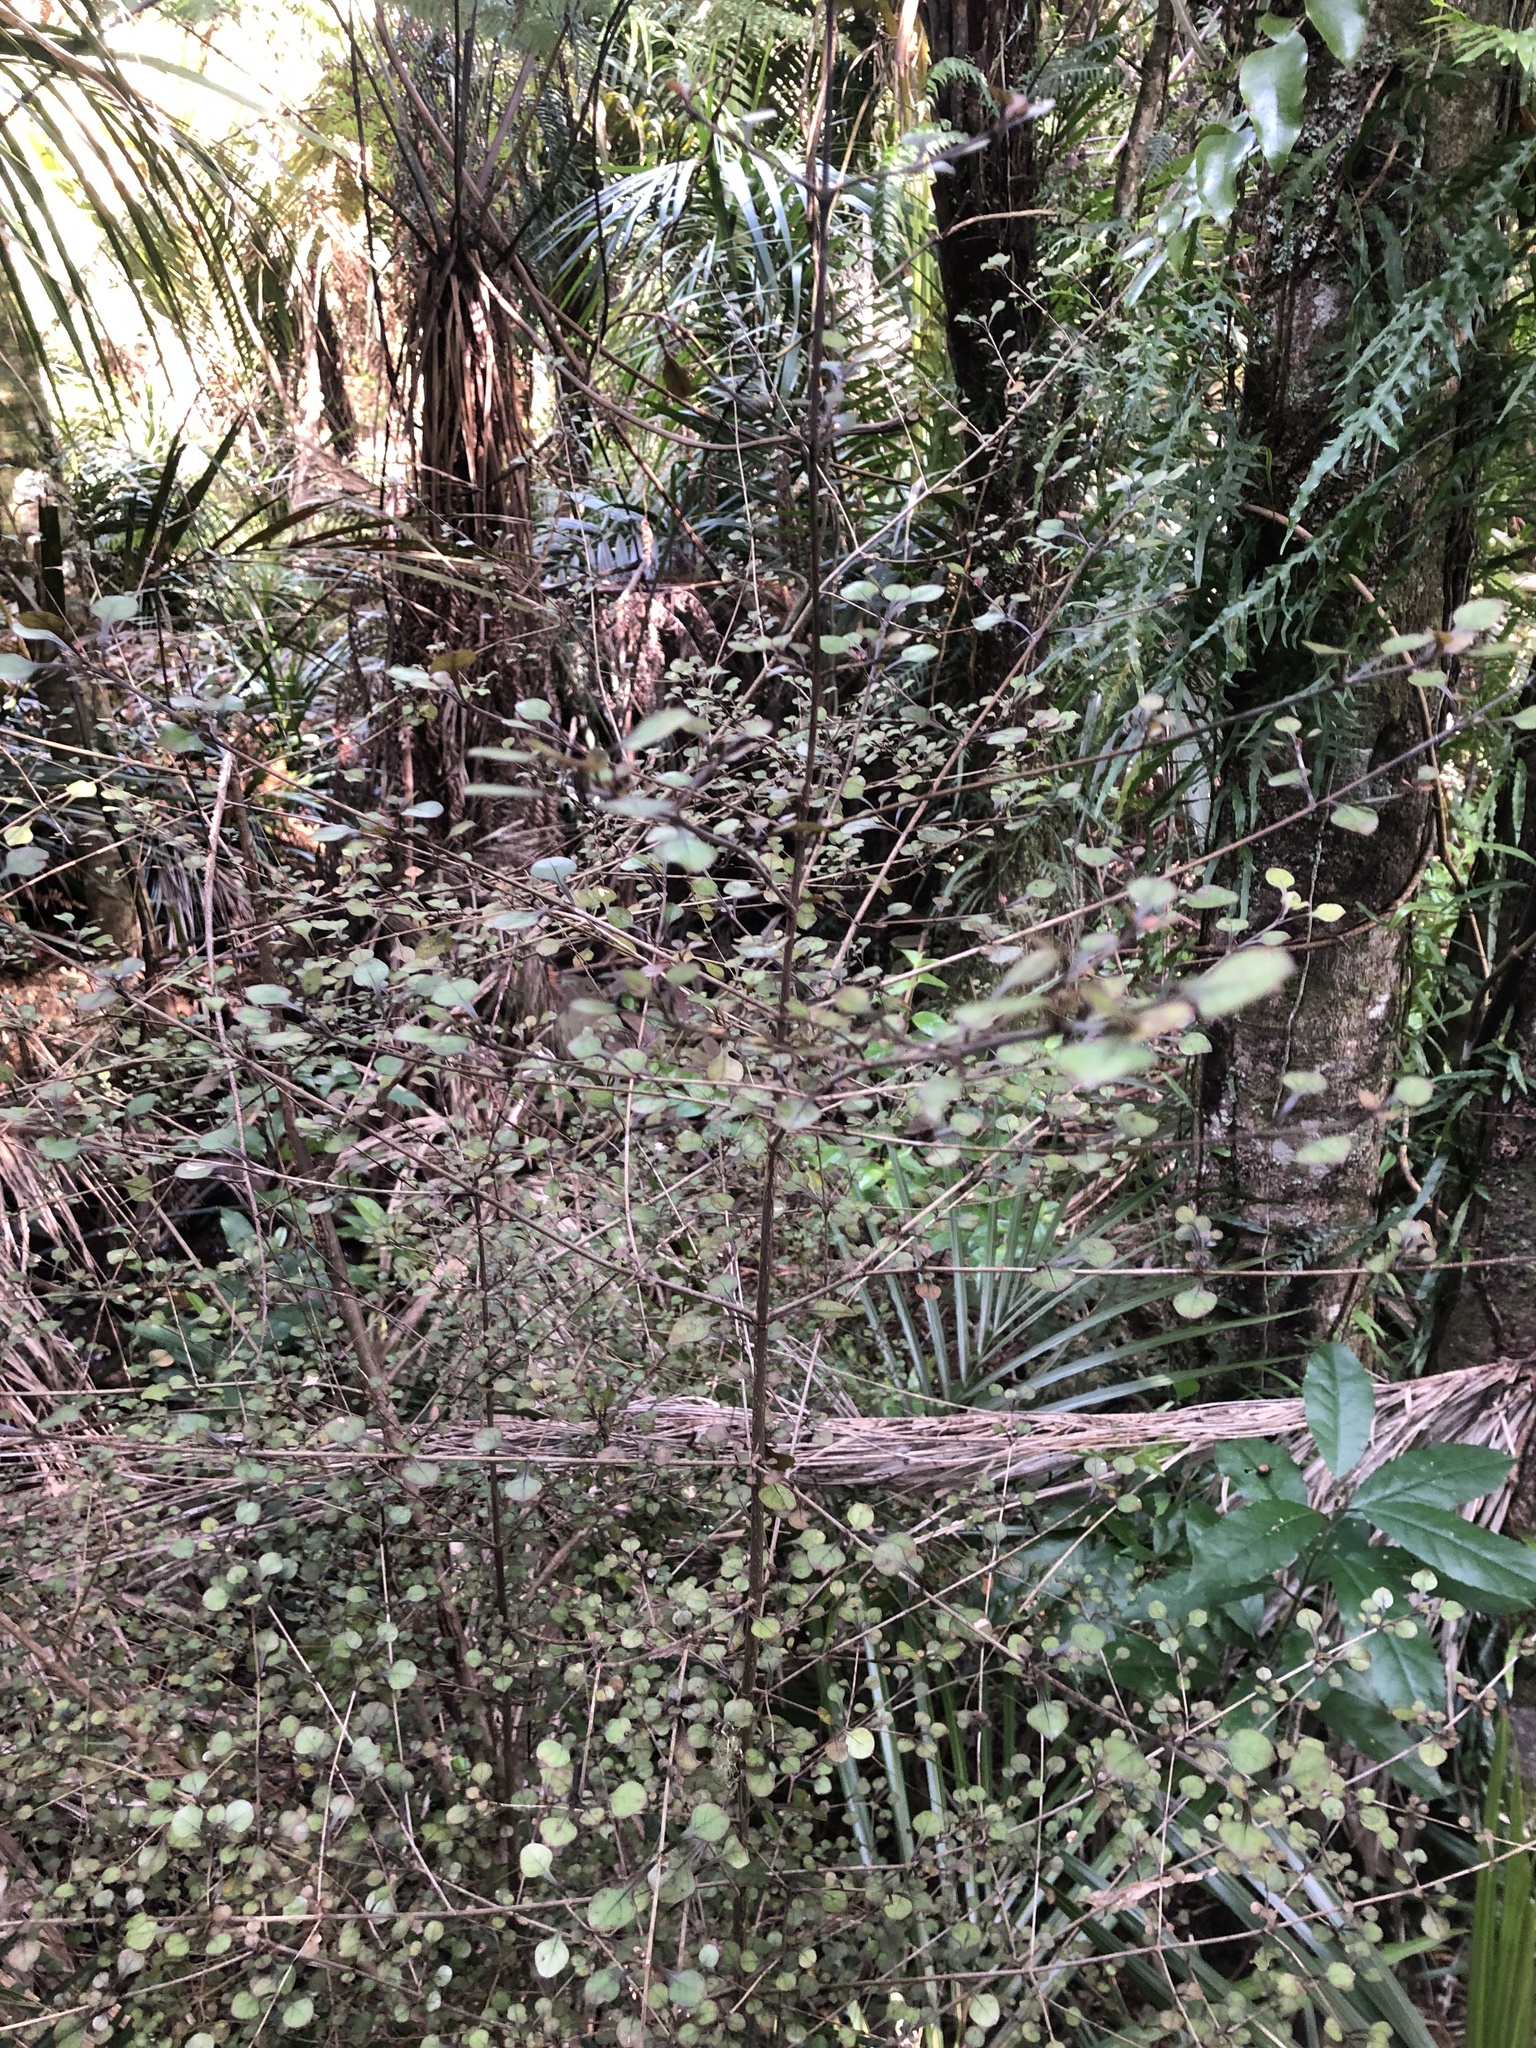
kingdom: Plantae
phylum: Tracheophyta
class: Magnoliopsida
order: Gentianales
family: Rubiaceae
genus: Coprosma
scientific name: Coprosma arborea
